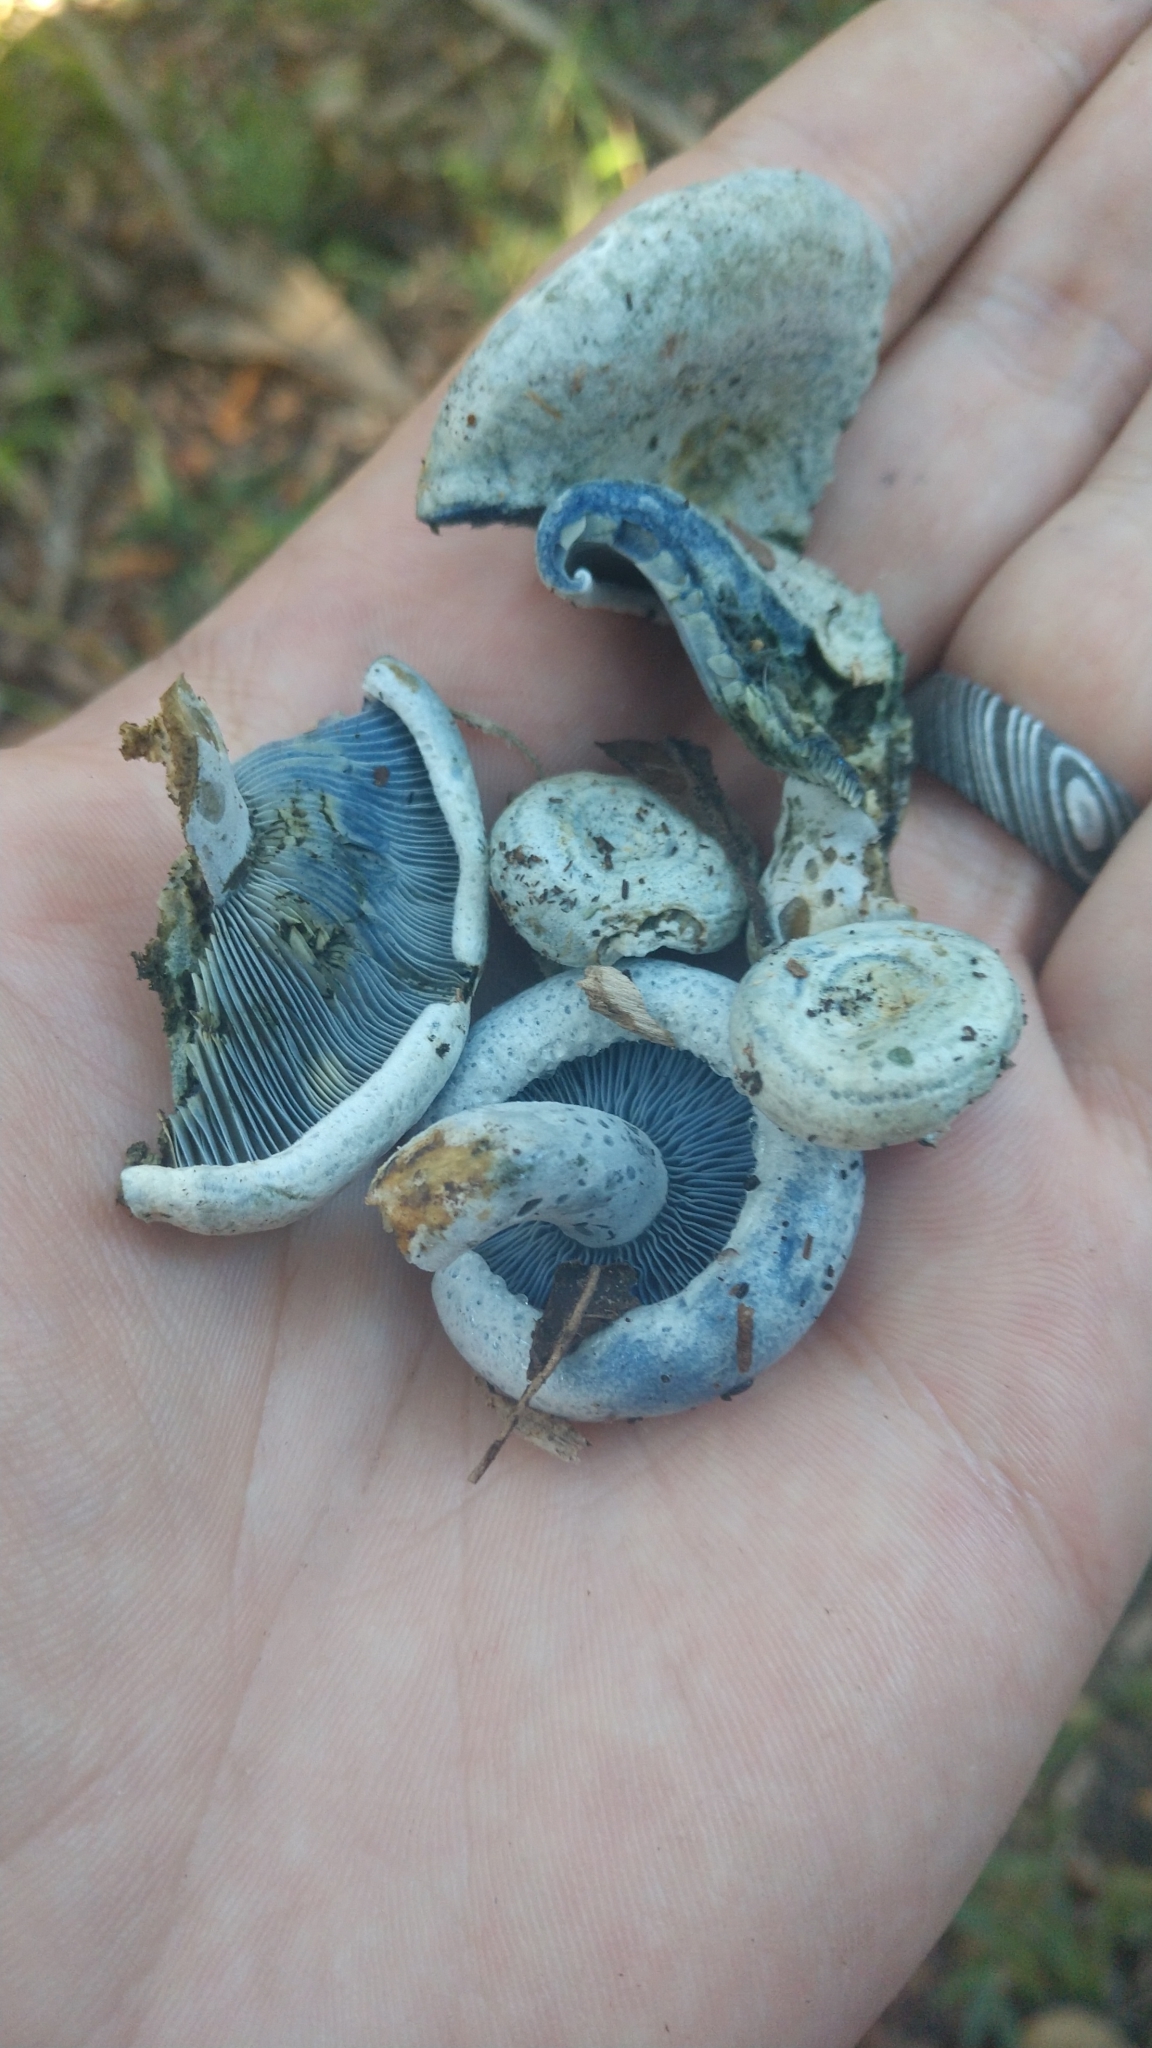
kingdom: Fungi
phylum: Basidiomycota
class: Agaricomycetes
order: Russulales
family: Russulaceae
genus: Lactarius
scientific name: Lactarius indigo
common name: Indigo milk cap
